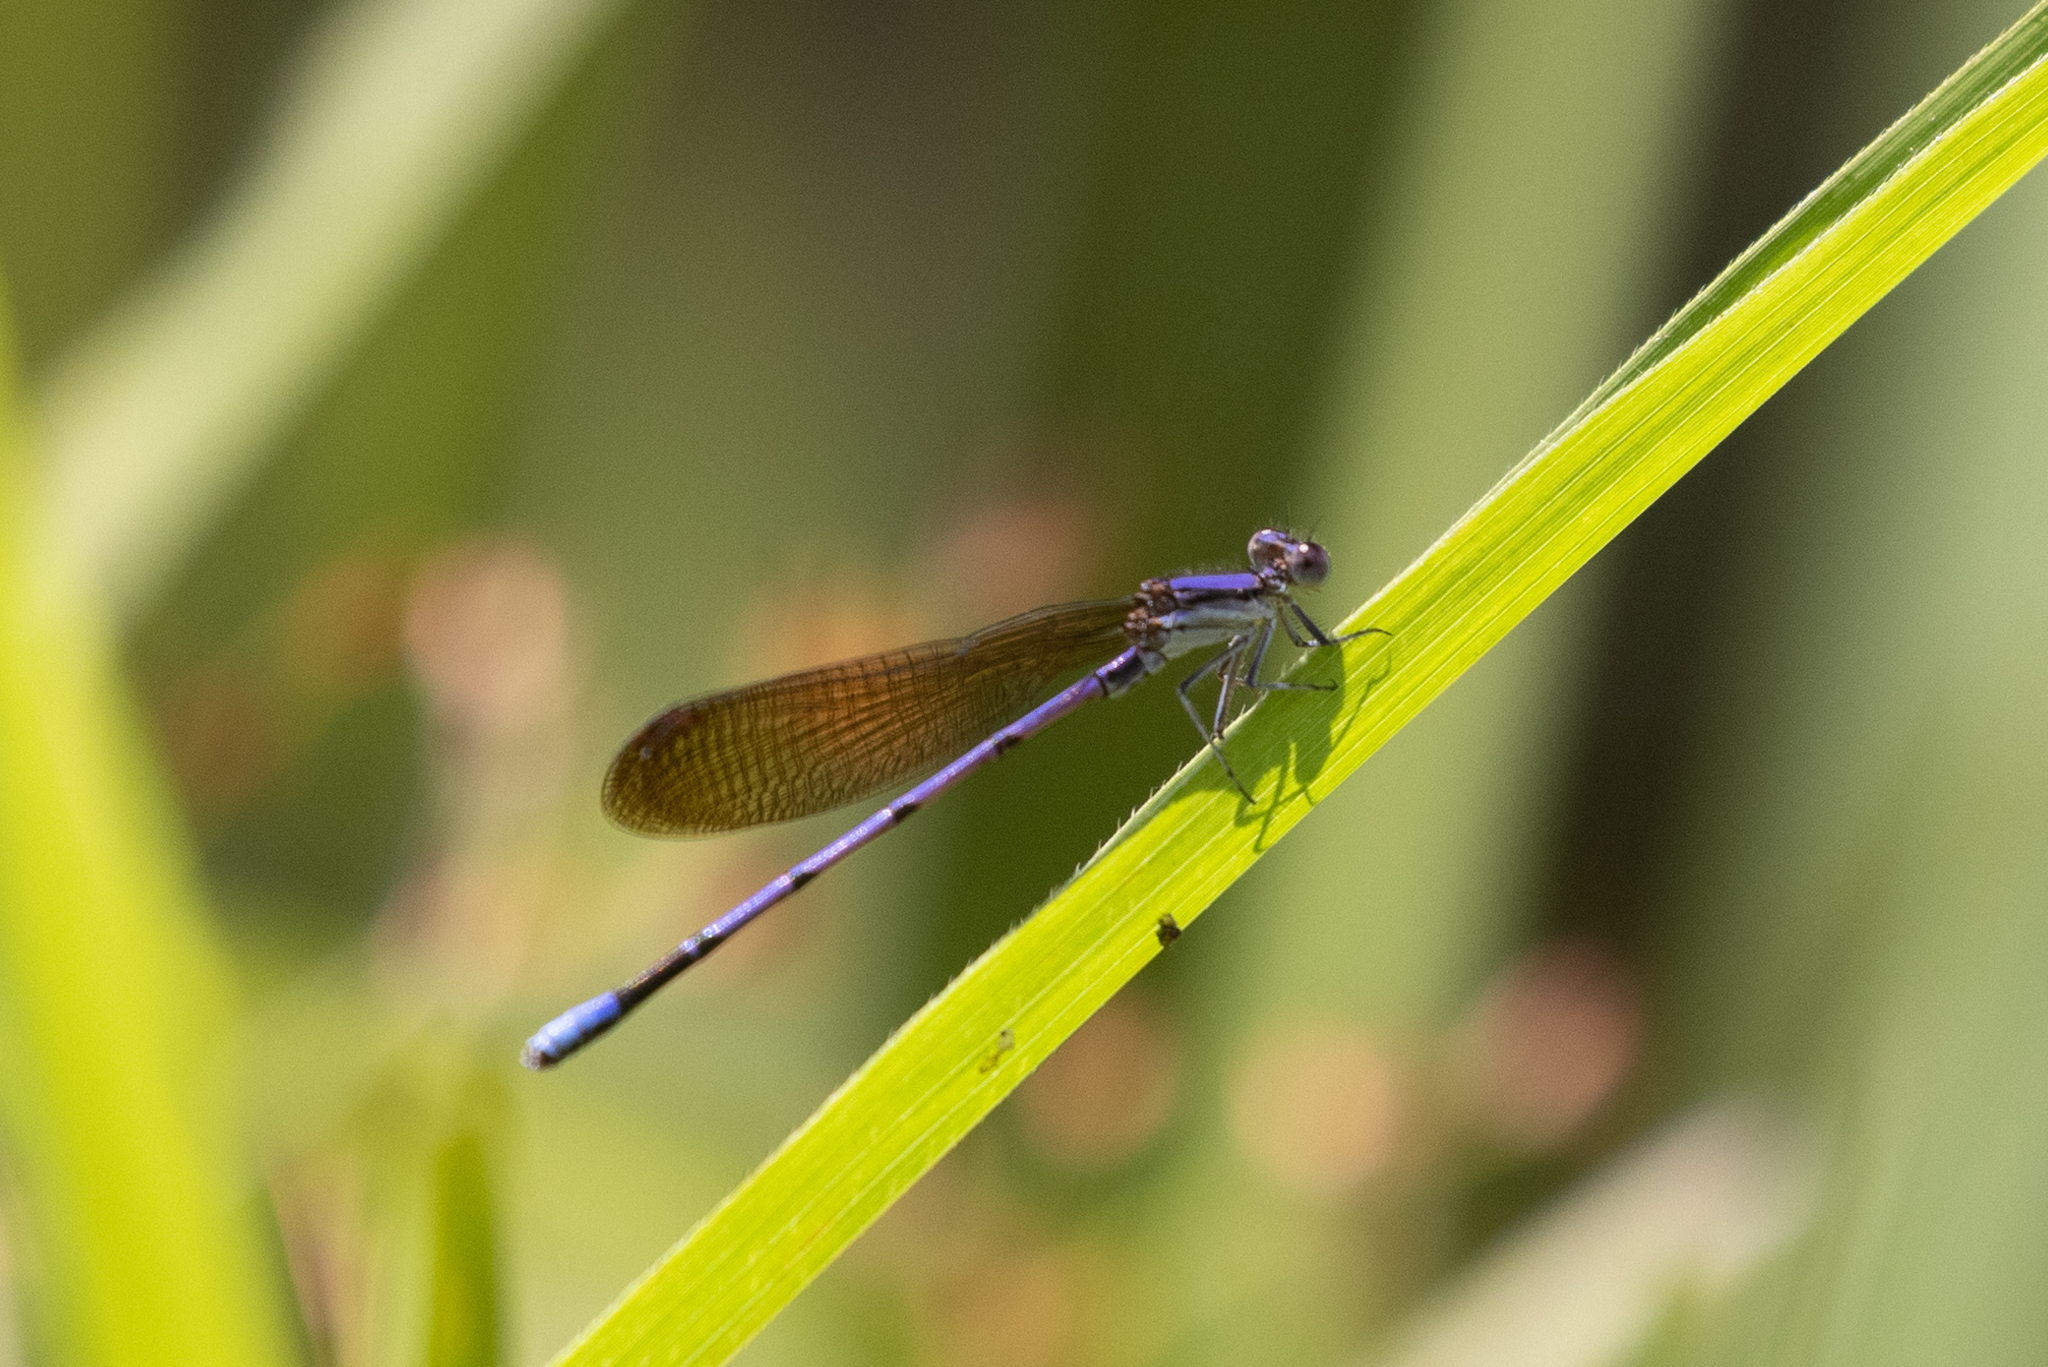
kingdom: Animalia
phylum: Arthropoda
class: Insecta
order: Odonata
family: Coenagrionidae
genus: Argia
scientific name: Argia fumipennis
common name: Variable dancer
